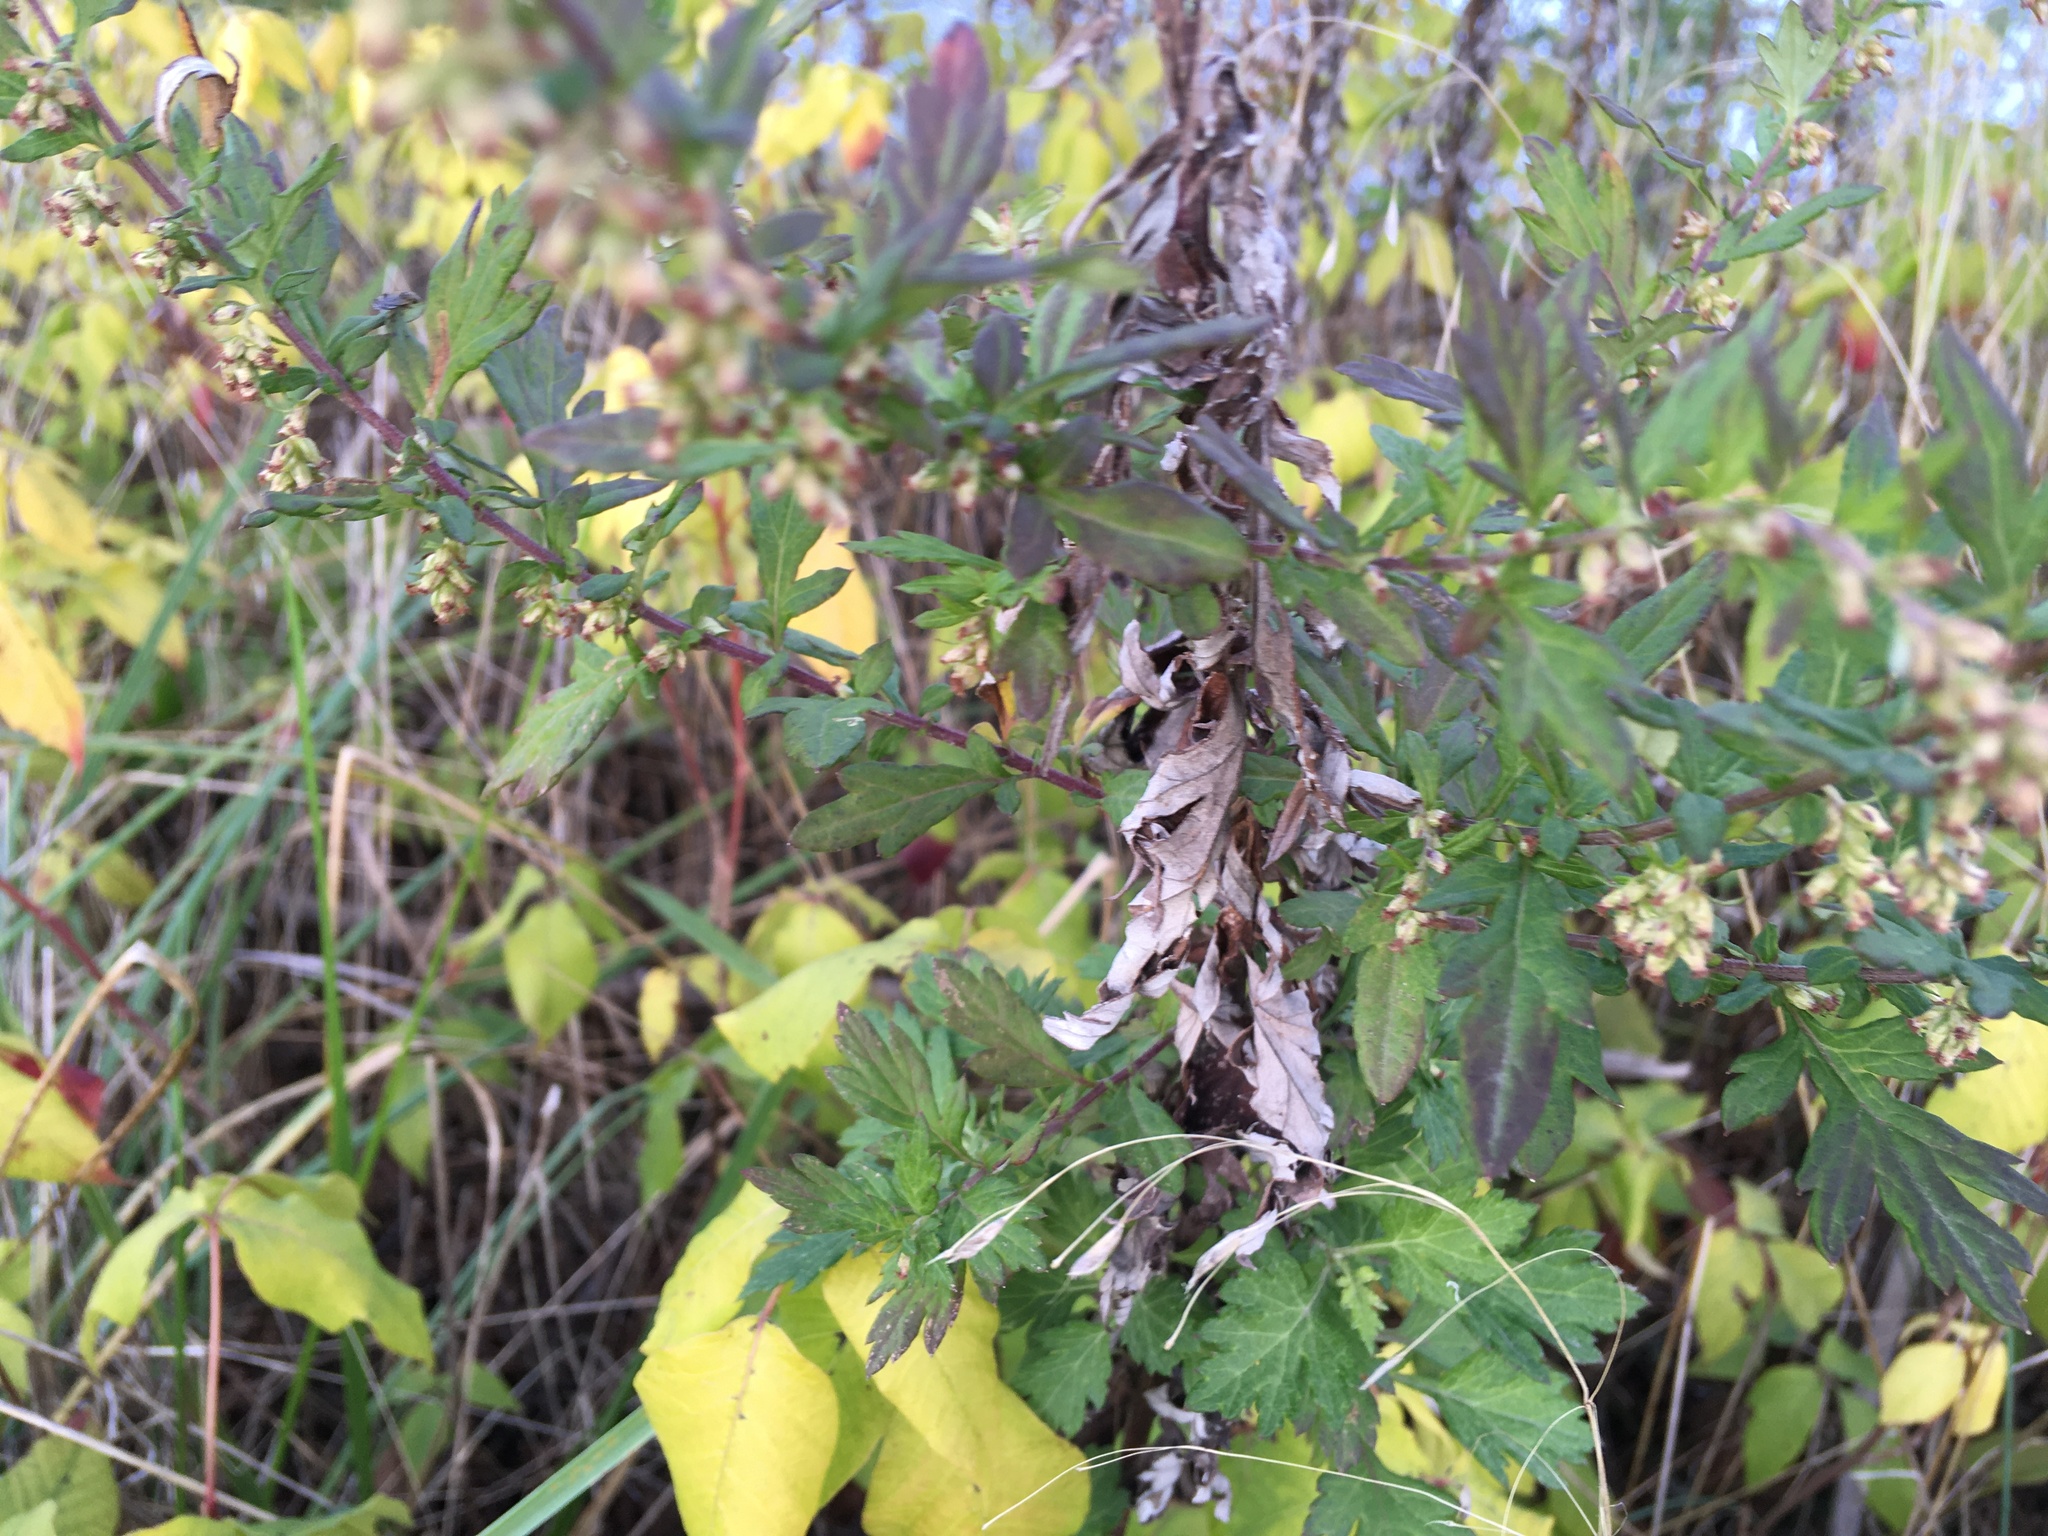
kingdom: Plantae
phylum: Tracheophyta
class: Magnoliopsida
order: Asterales
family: Asteraceae
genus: Artemisia
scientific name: Artemisia vulgaris
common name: Mugwort
